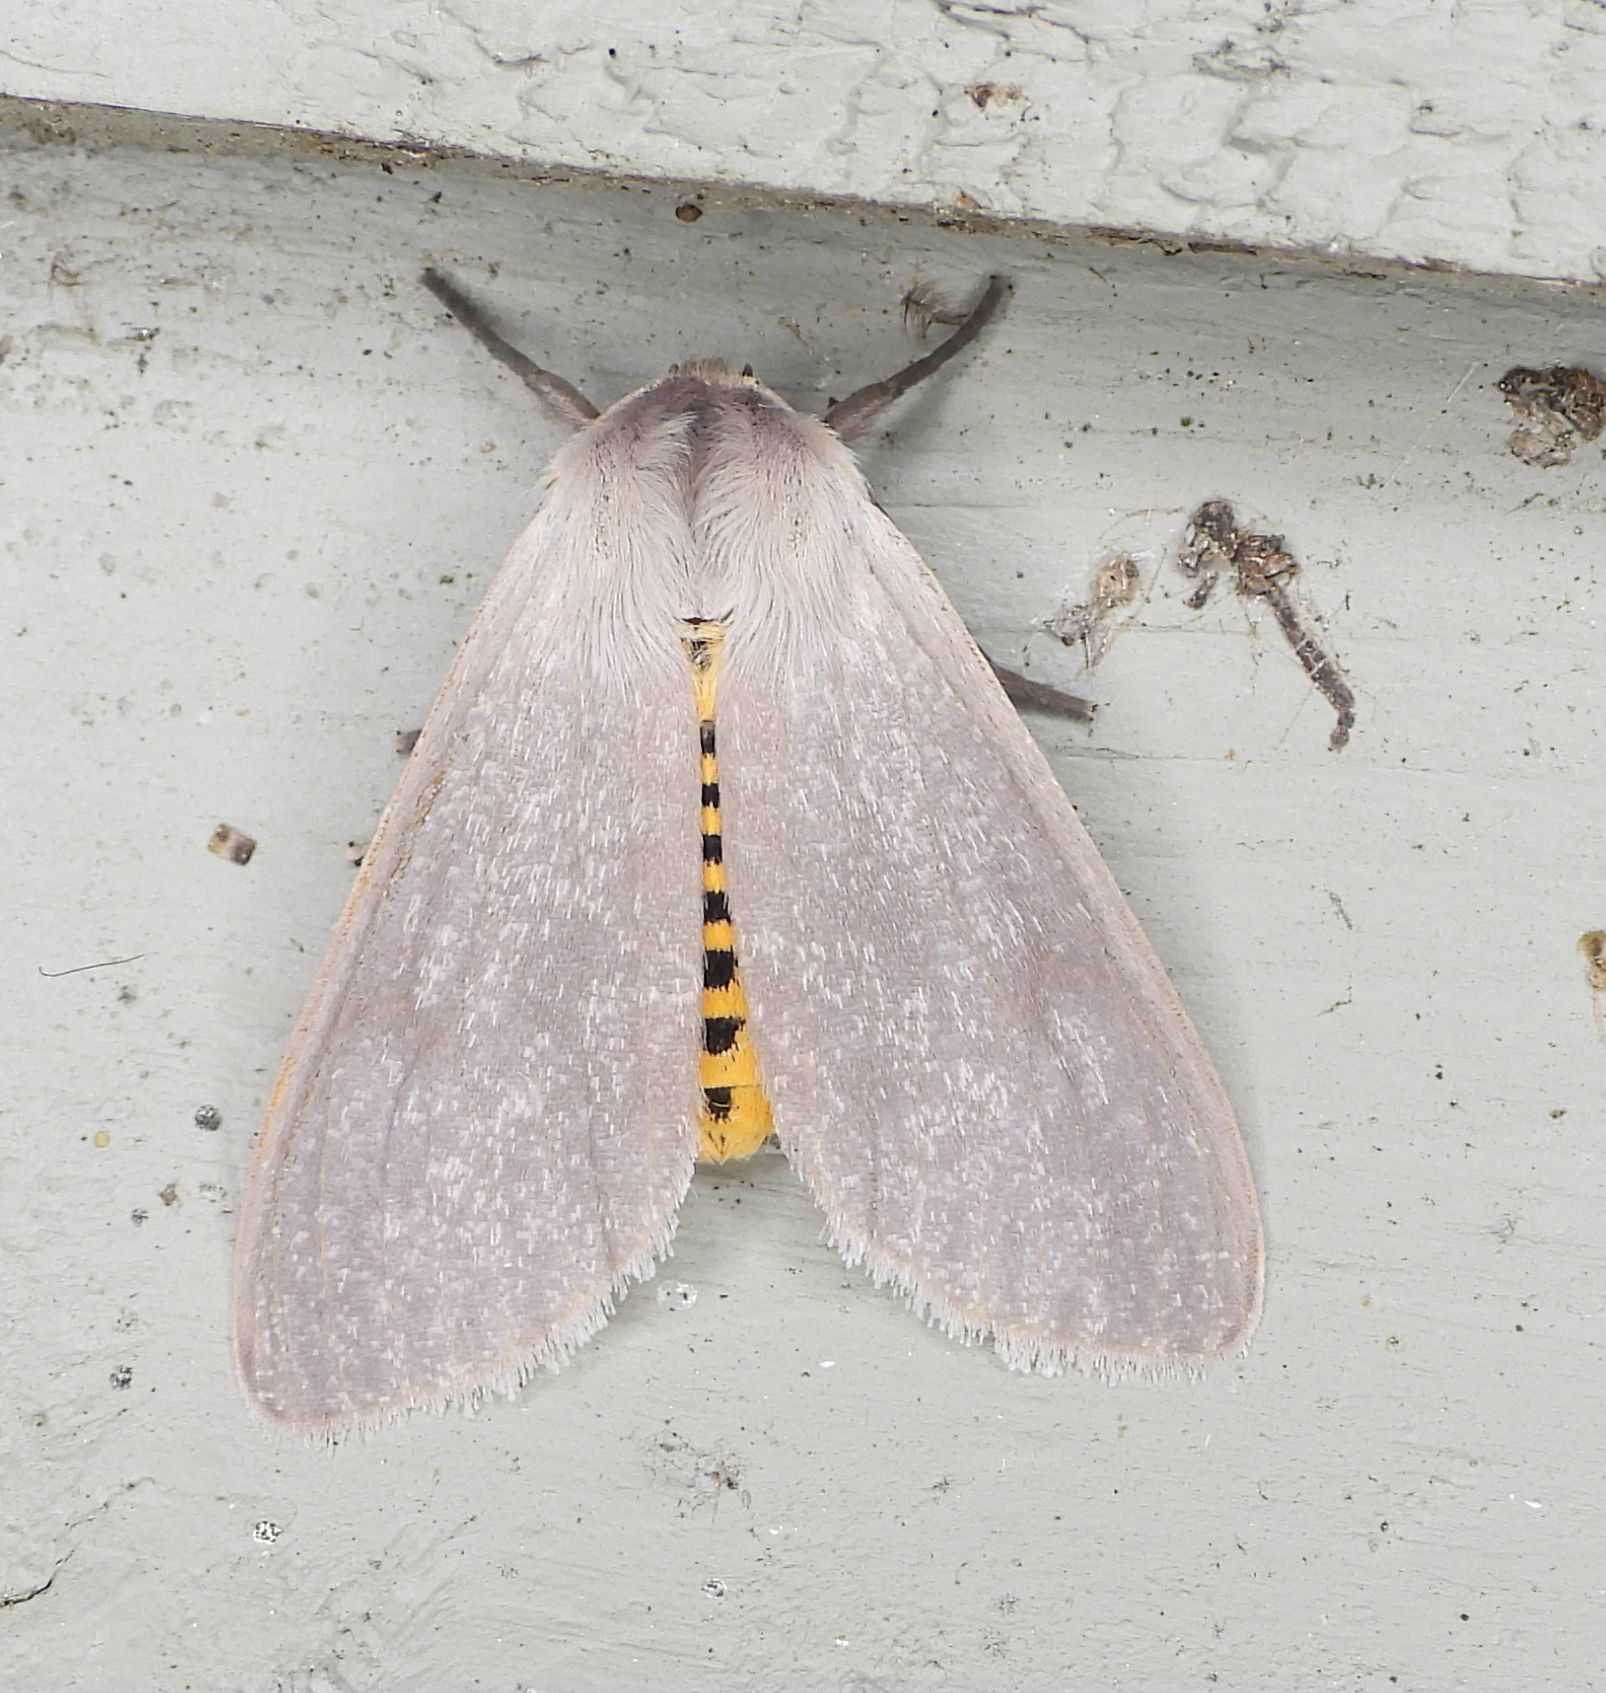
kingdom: Animalia
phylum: Arthropoda
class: Insecta
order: Lepidoptera
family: Erebidae
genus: Euchaetes
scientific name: Euchaetes egle
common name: Milkweed tussock moth
